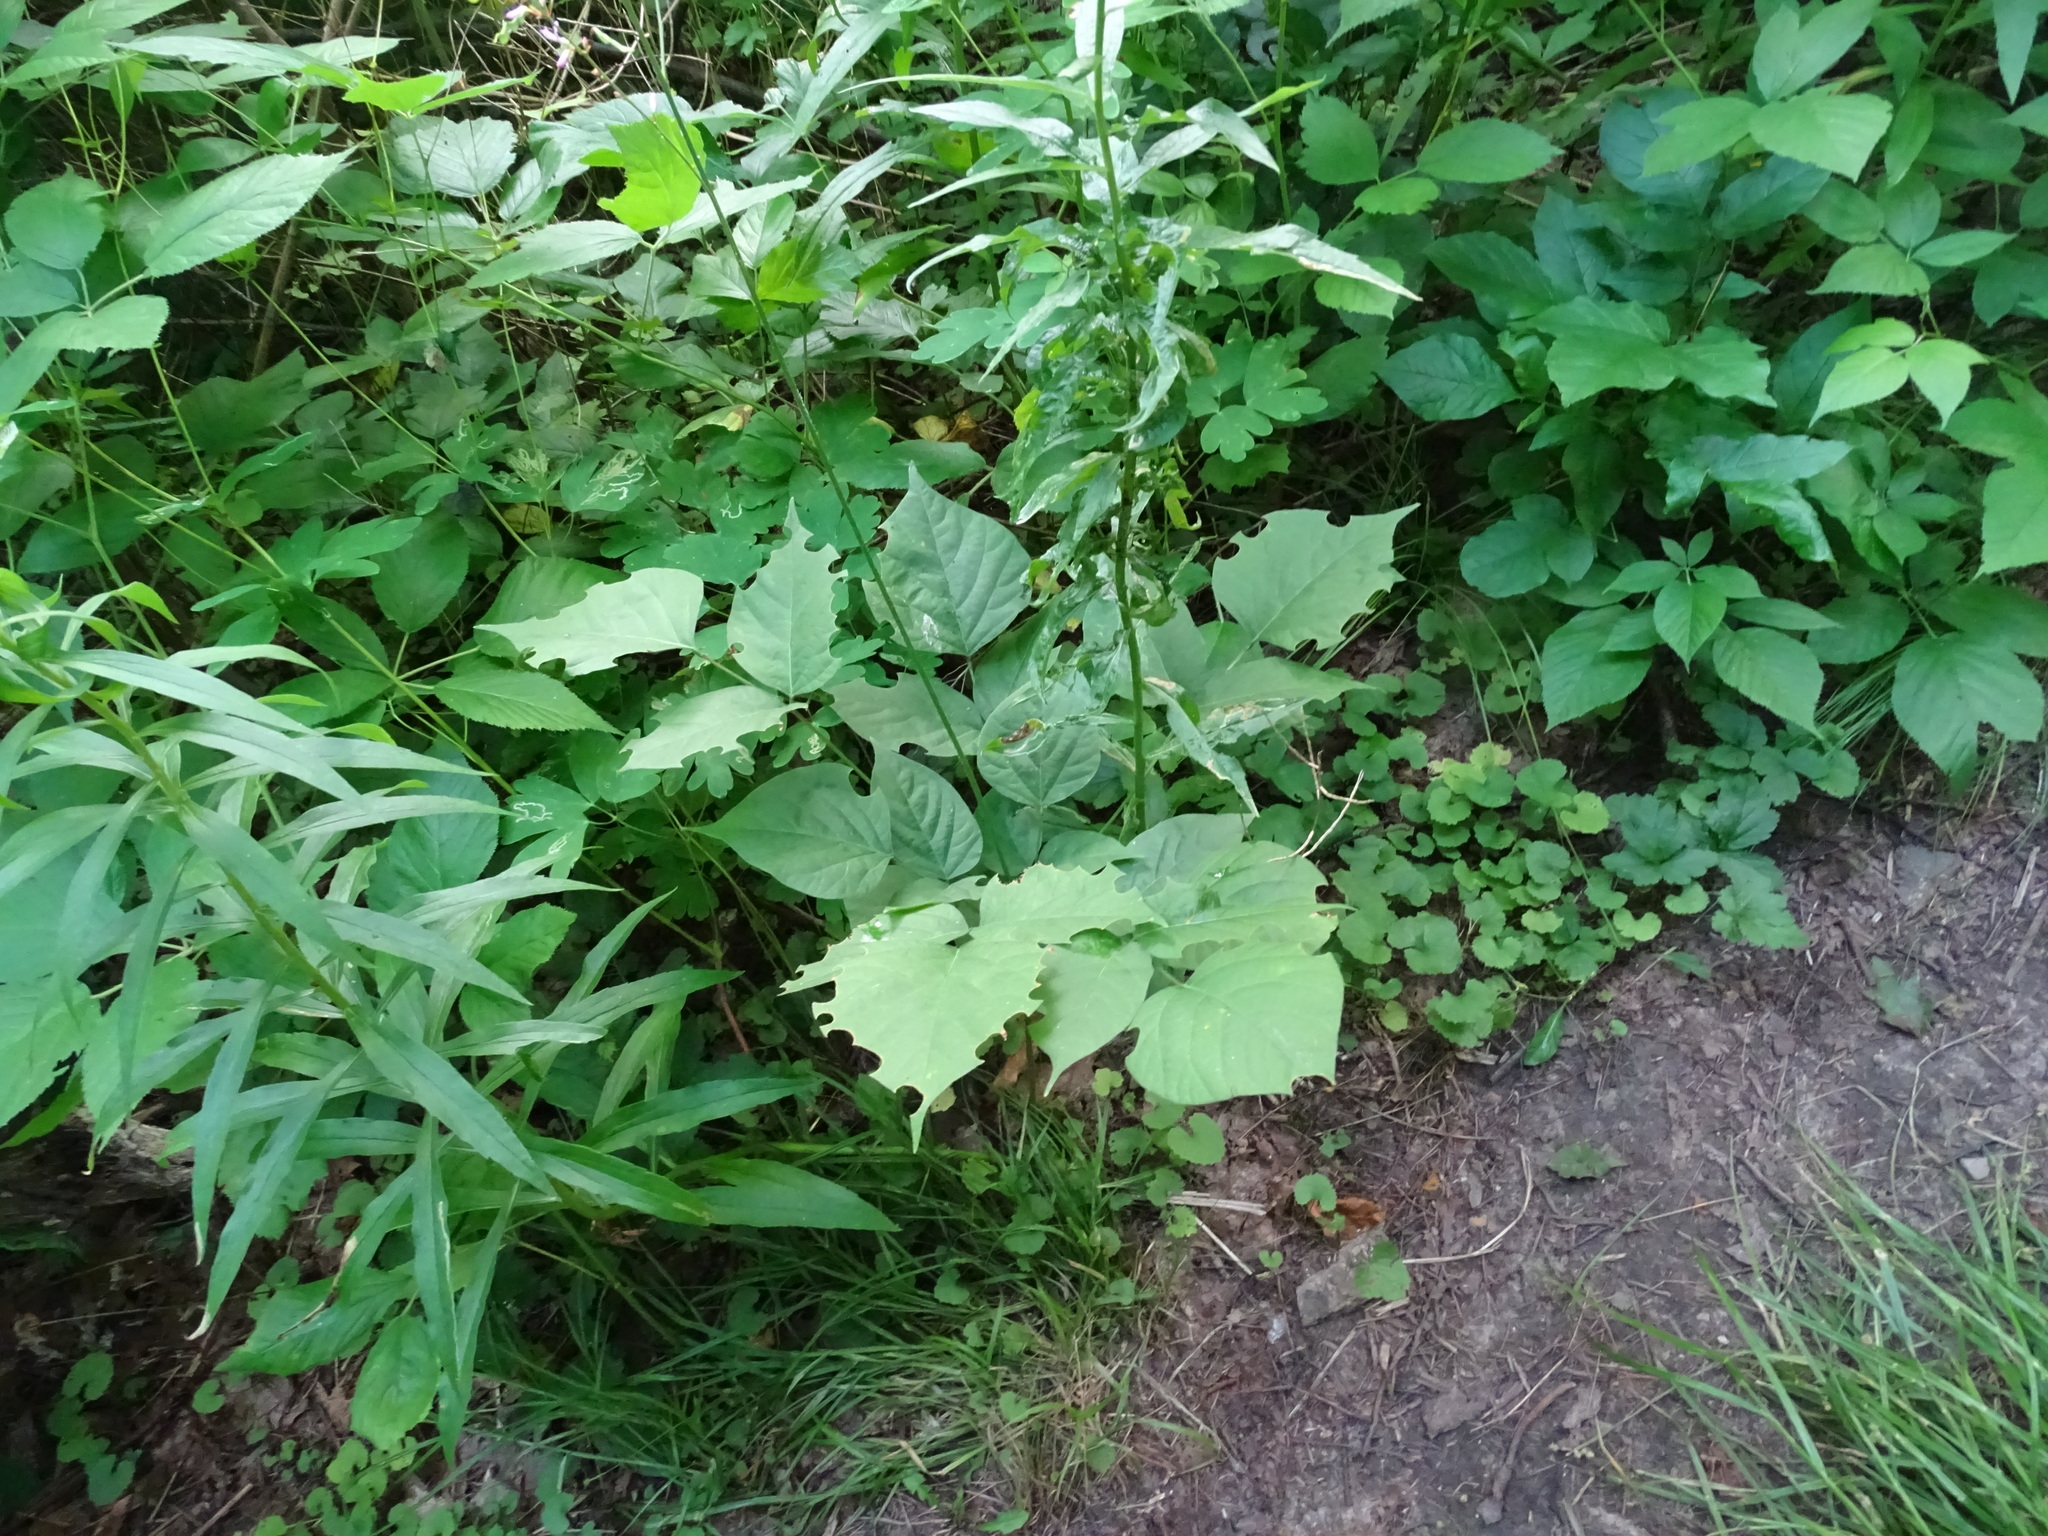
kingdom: Plantae
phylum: Tracheophyta
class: Magnoliopsida
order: Fabales
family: Fabaceae
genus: Hylodesmum
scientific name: Hylodesmum glutinosum
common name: Clustered-leaved tick-trefoil
